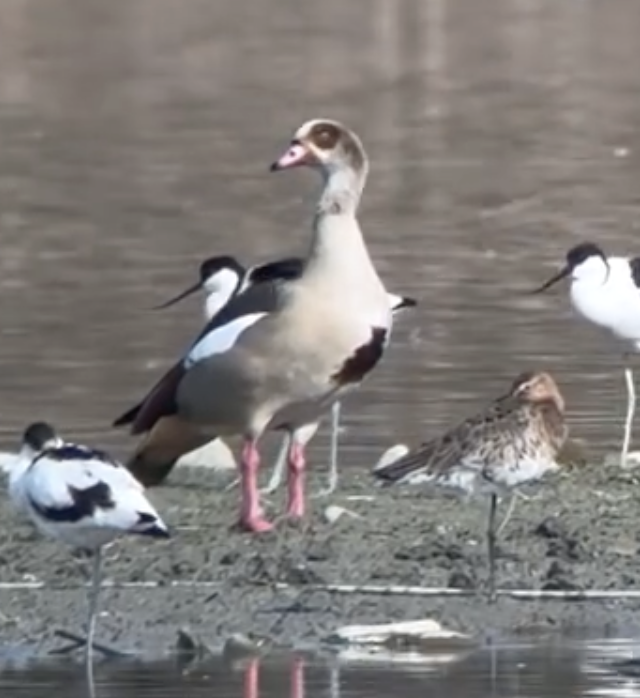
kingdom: Animalia
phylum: Chordata
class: Aves
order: Anseriformes
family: Anatidae
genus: Alopochen
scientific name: Alopochen aegyptiaca
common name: Egyptian goose
